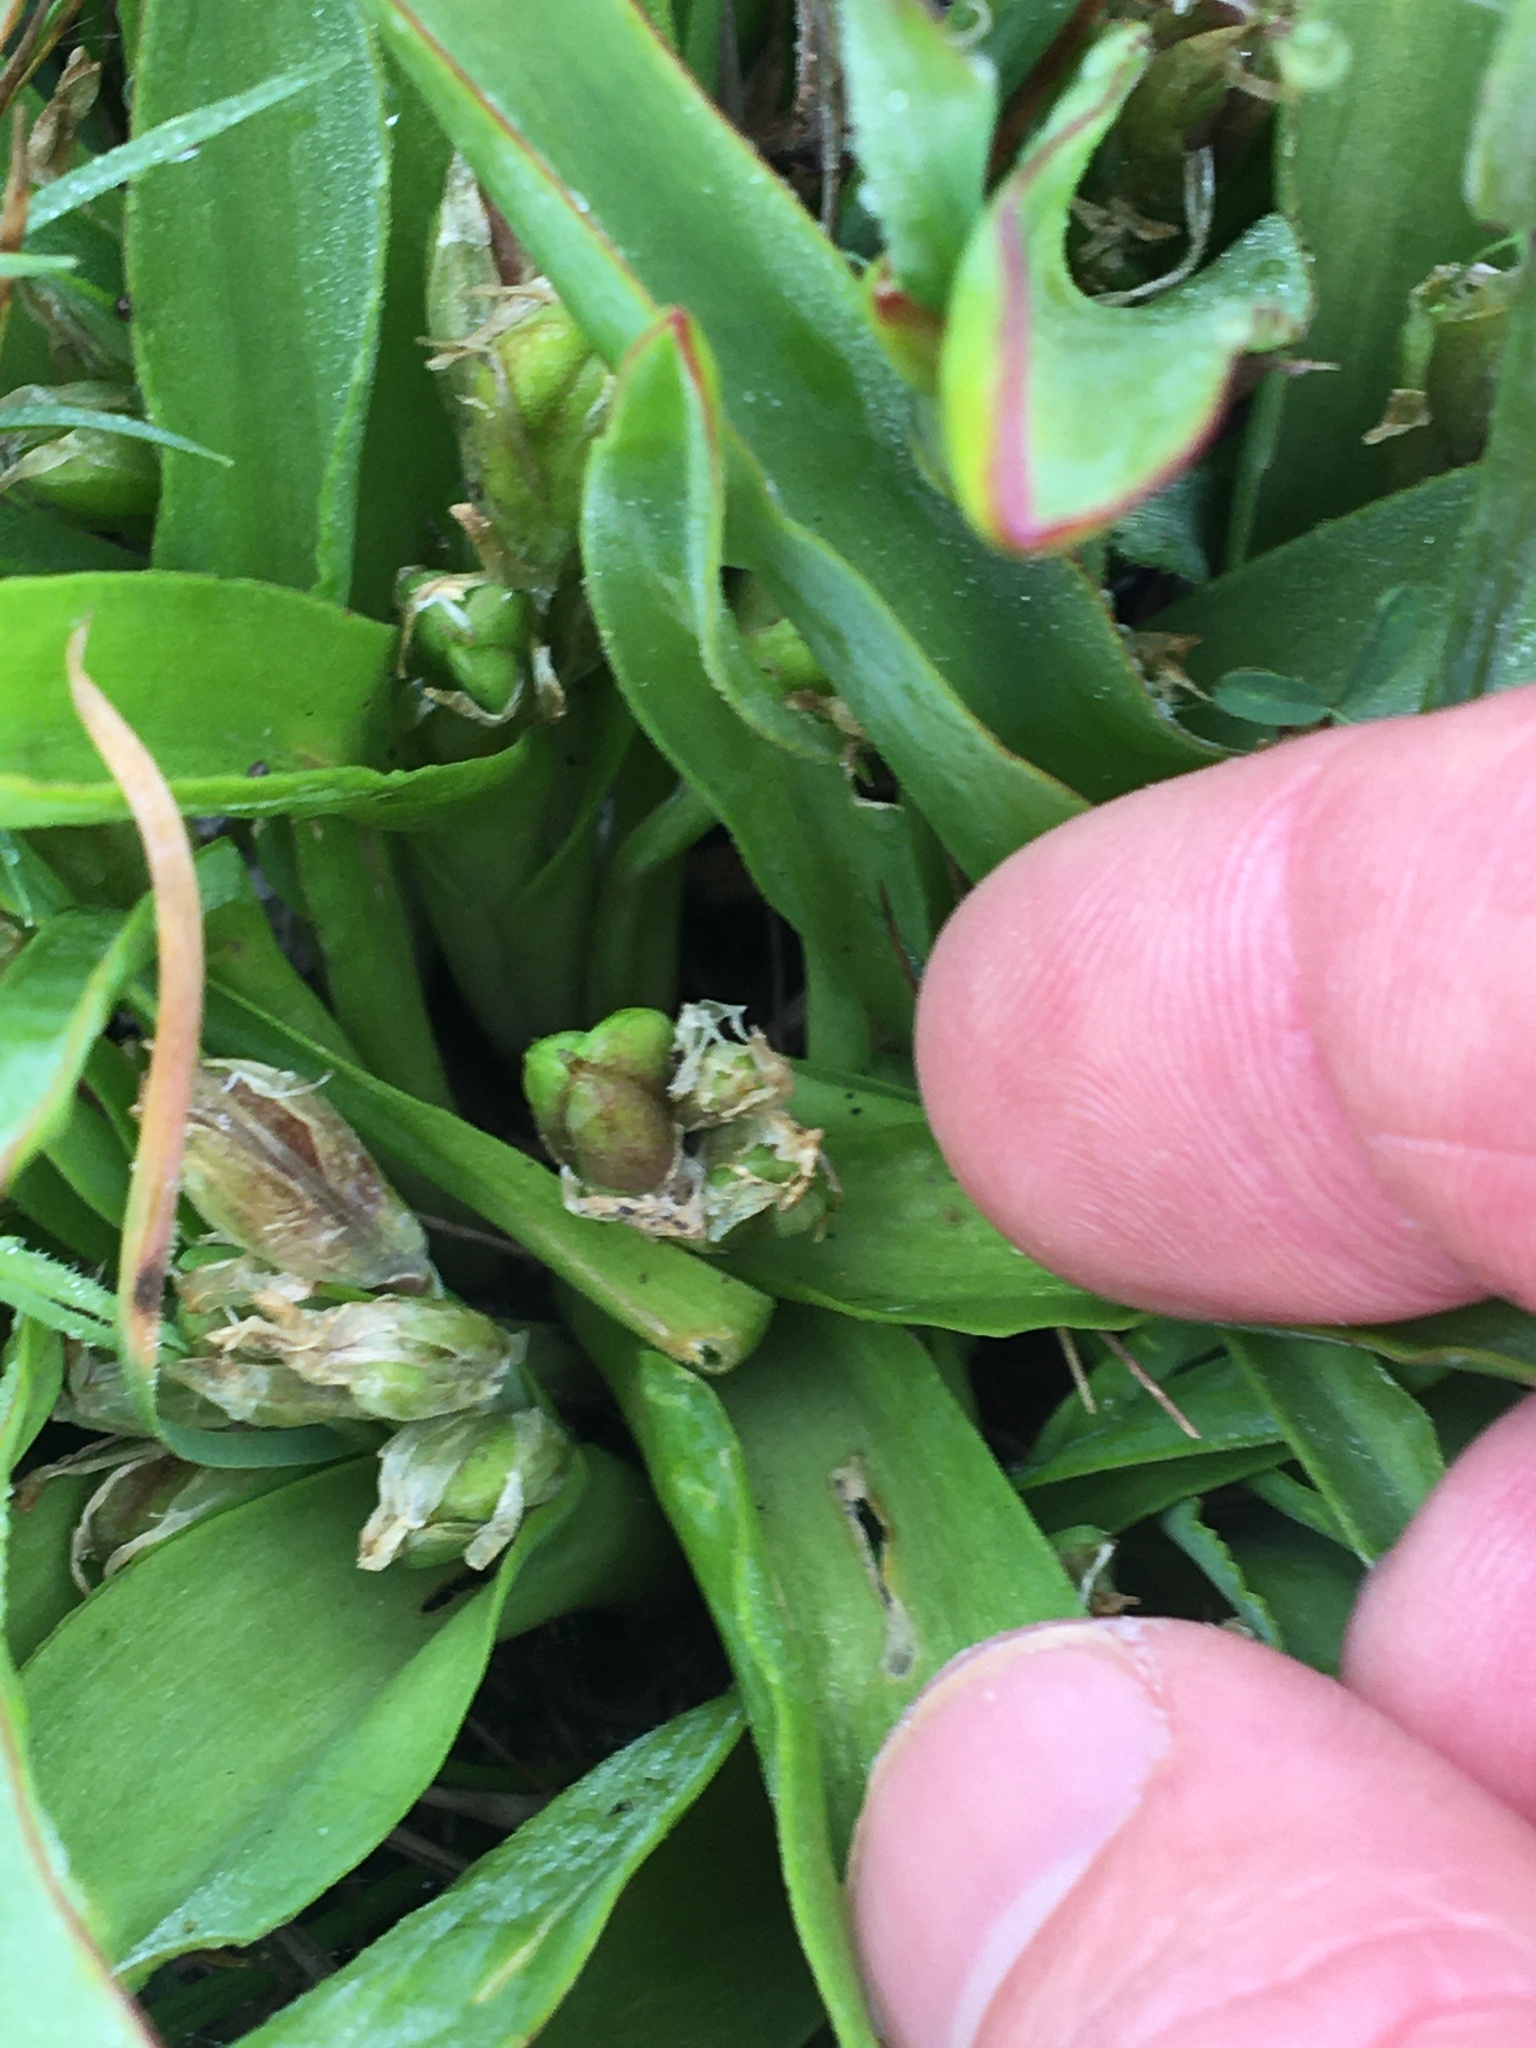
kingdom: Plantae
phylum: Tracheophyta
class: Liliopsida
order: Asparagales
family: Asparagaceae
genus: Lachenalia
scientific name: Lachenalia reflexa
